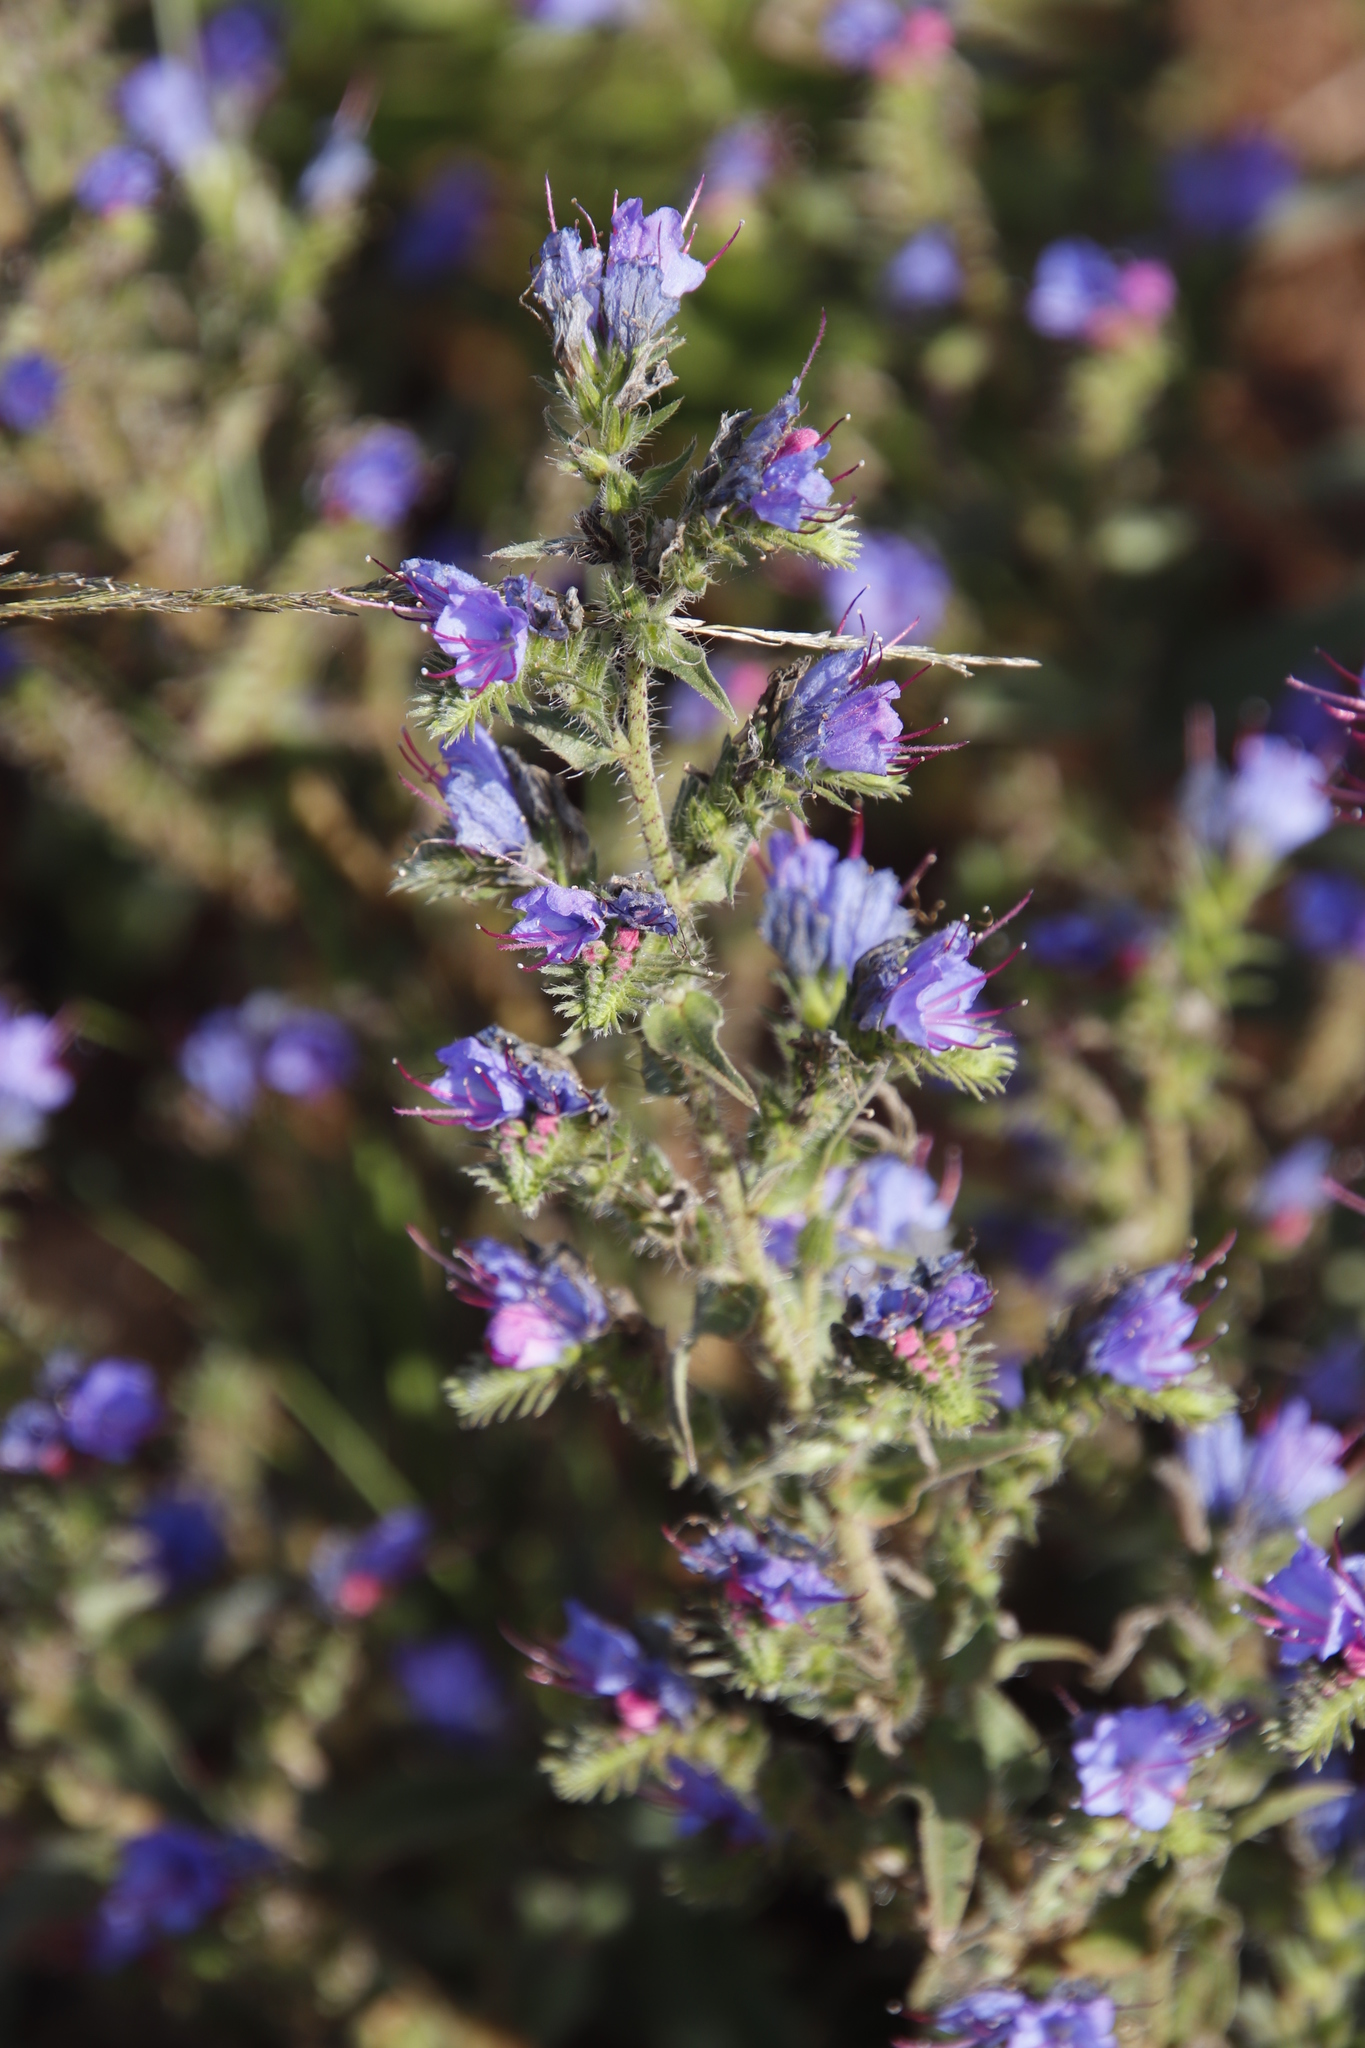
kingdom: Plantae
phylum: Tracheophyta
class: Magnoliopsida
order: Boraginales
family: Boraginaceae
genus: Echium
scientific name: Echium vulgare
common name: Common viper's bugloss
